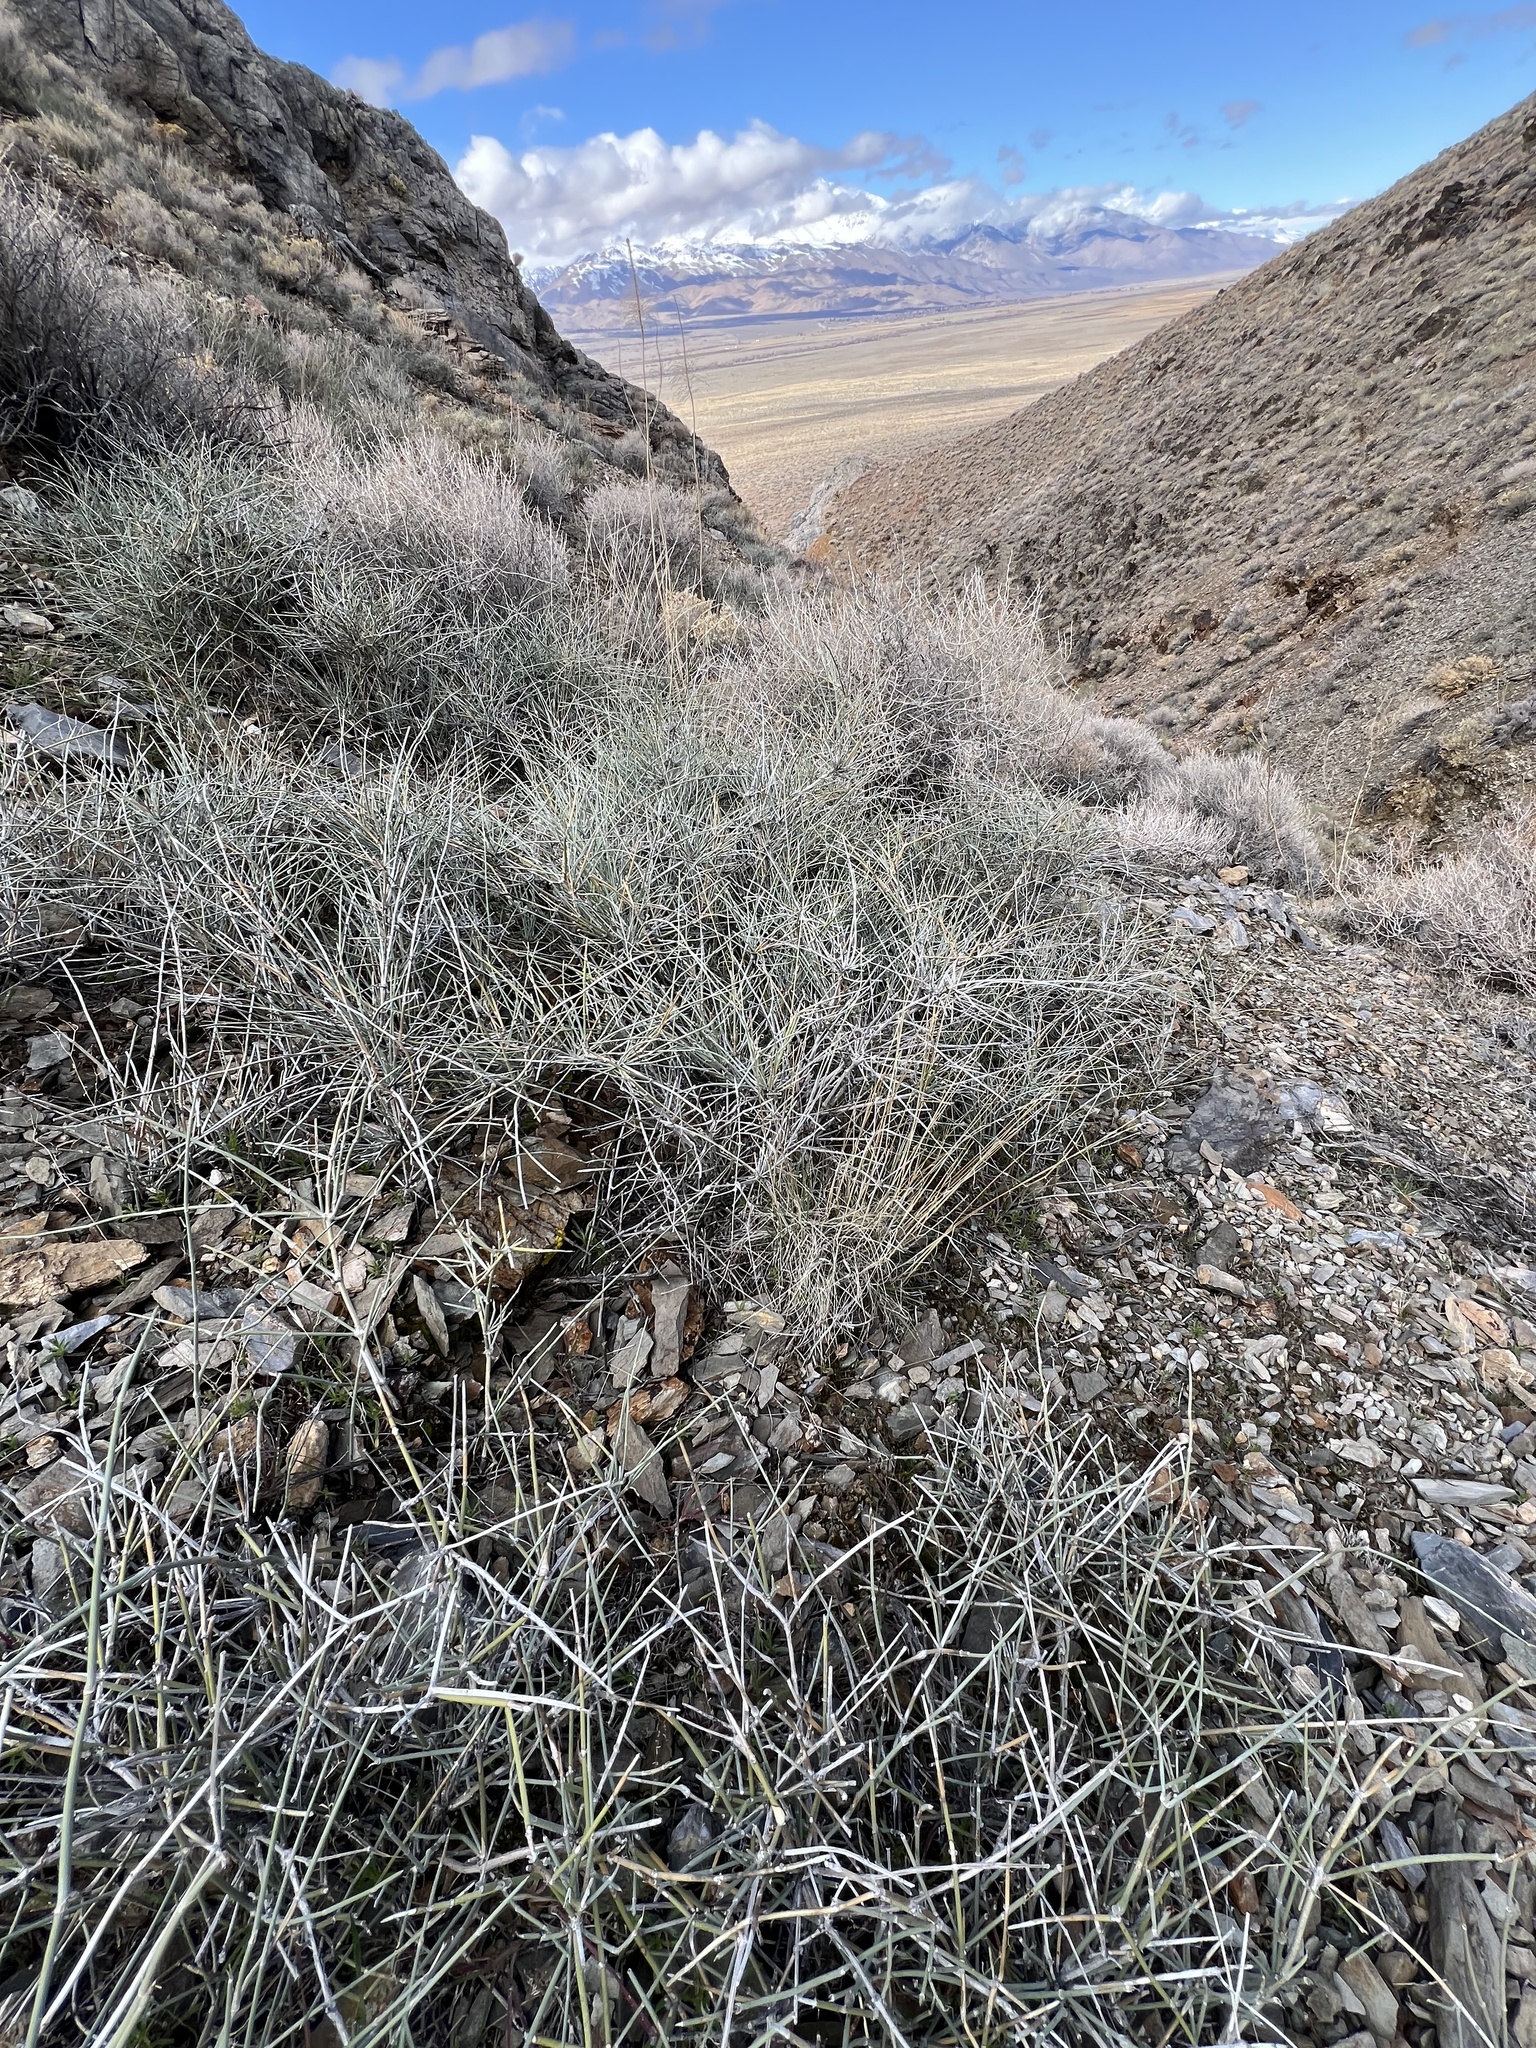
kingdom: Plantae
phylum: Tracheophyta
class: Gnetopsida
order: Ephedrales
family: Ephedraceae
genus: Ephedra
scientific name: Ephedra nevadensis
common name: Gray ephedra
